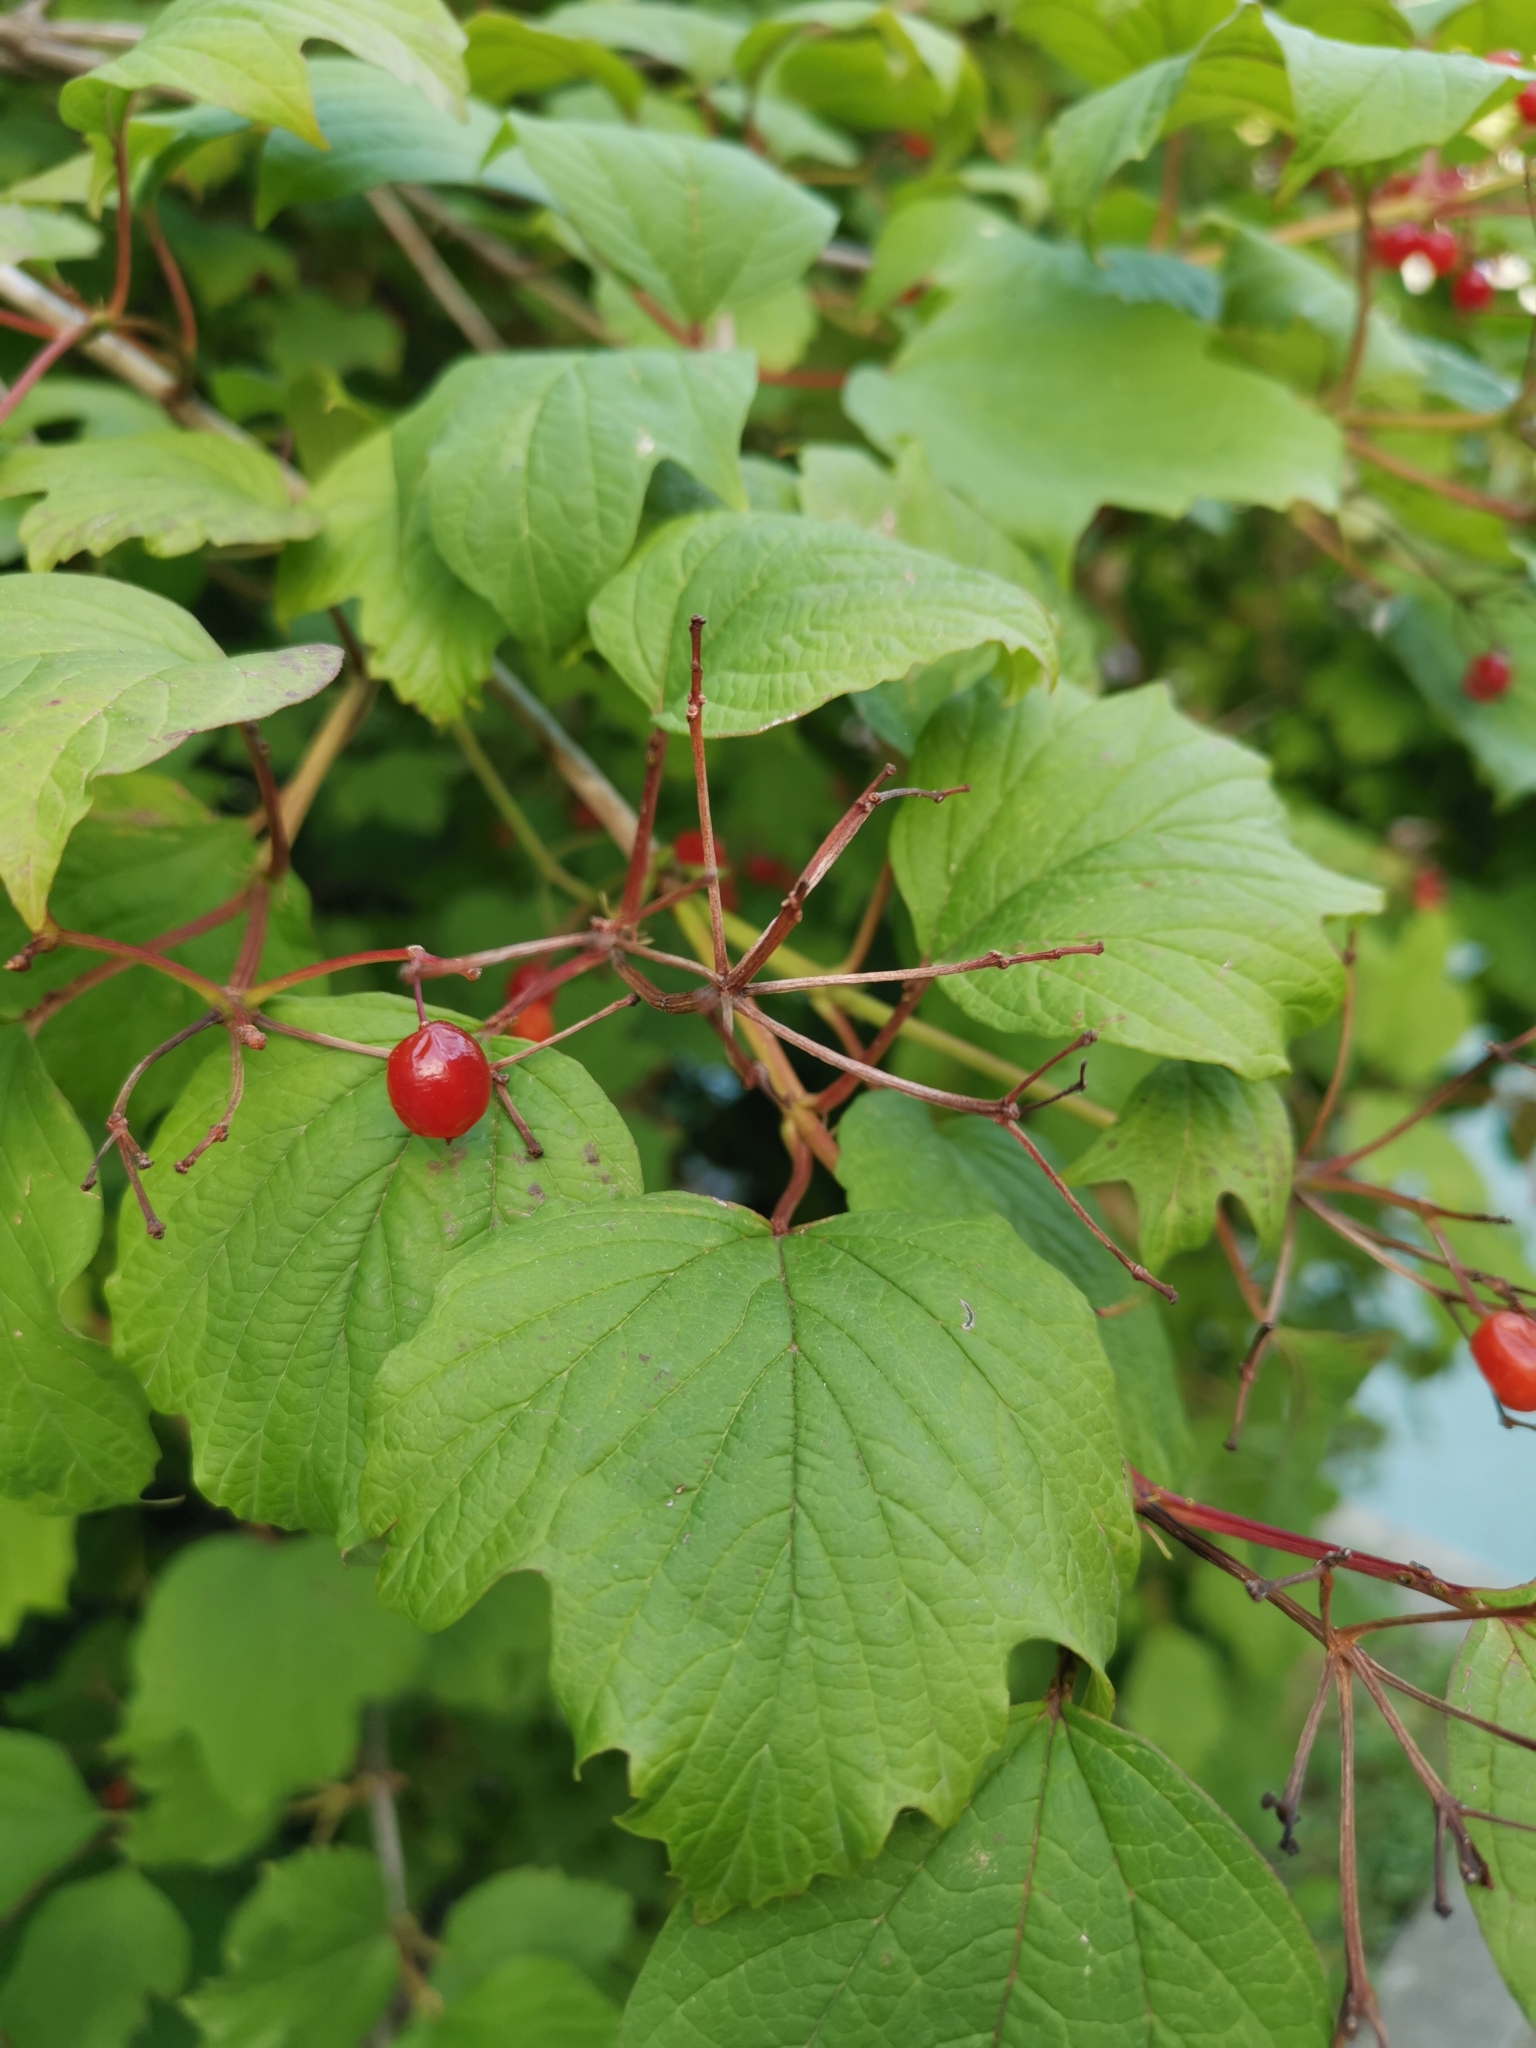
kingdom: Plantae
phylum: Tracheophyta
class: Magnoliopsida
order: Dipsacales
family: Viburnaceae
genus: Viburnum
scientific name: Viburnum opulus
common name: Guelder-rose
